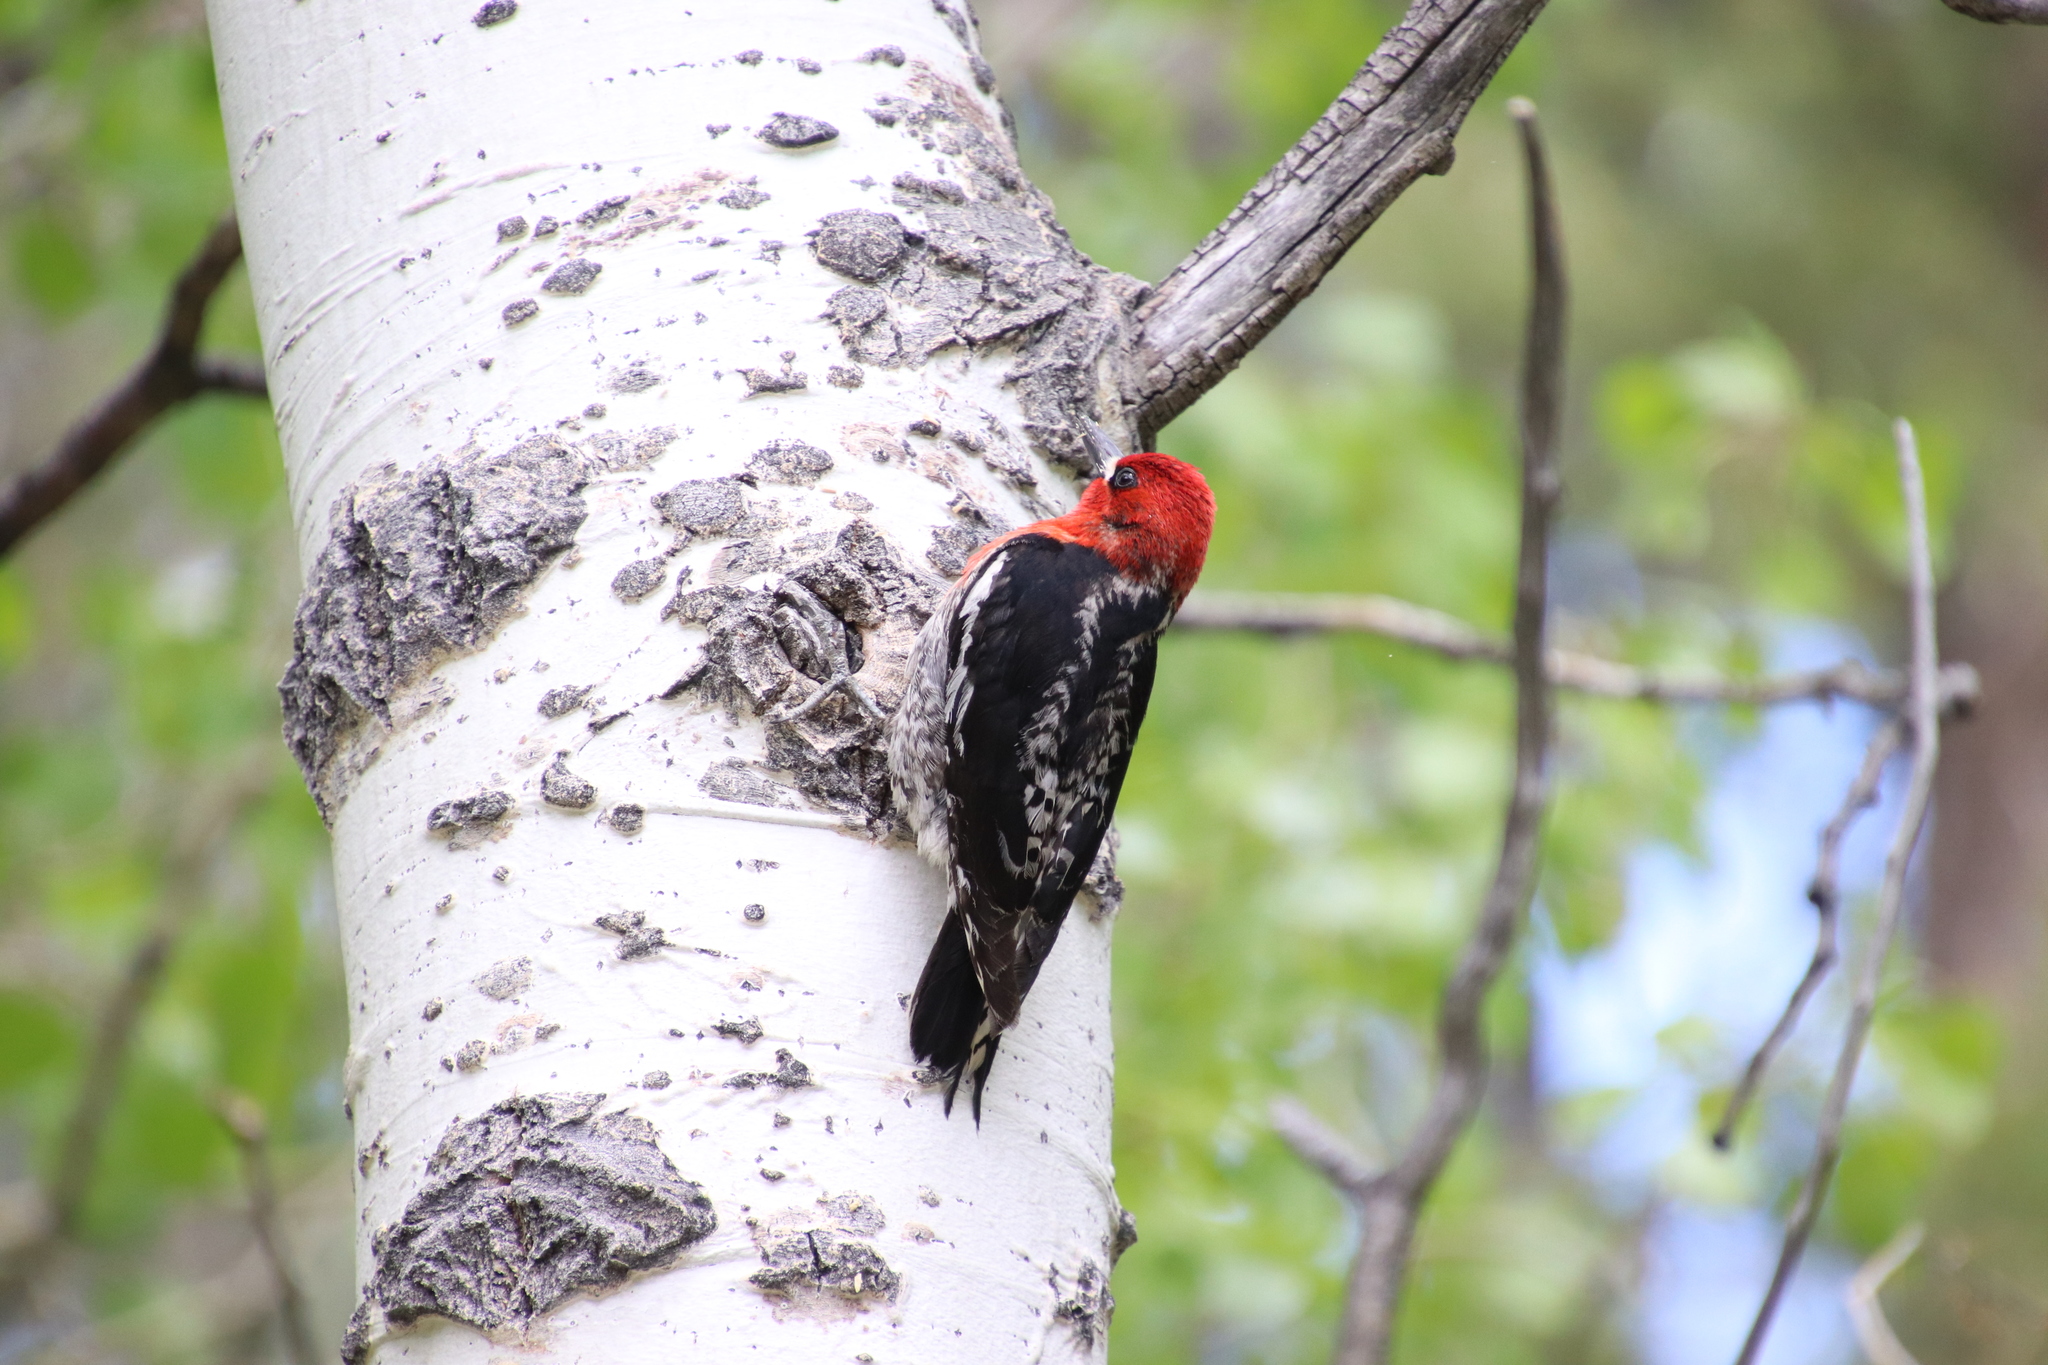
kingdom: Animalia
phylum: Chordata
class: Aves
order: Piciformes
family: Picidae
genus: Sphyrapicus
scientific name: Sphyrapicus ruber
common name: Red-breasted sapsucker
